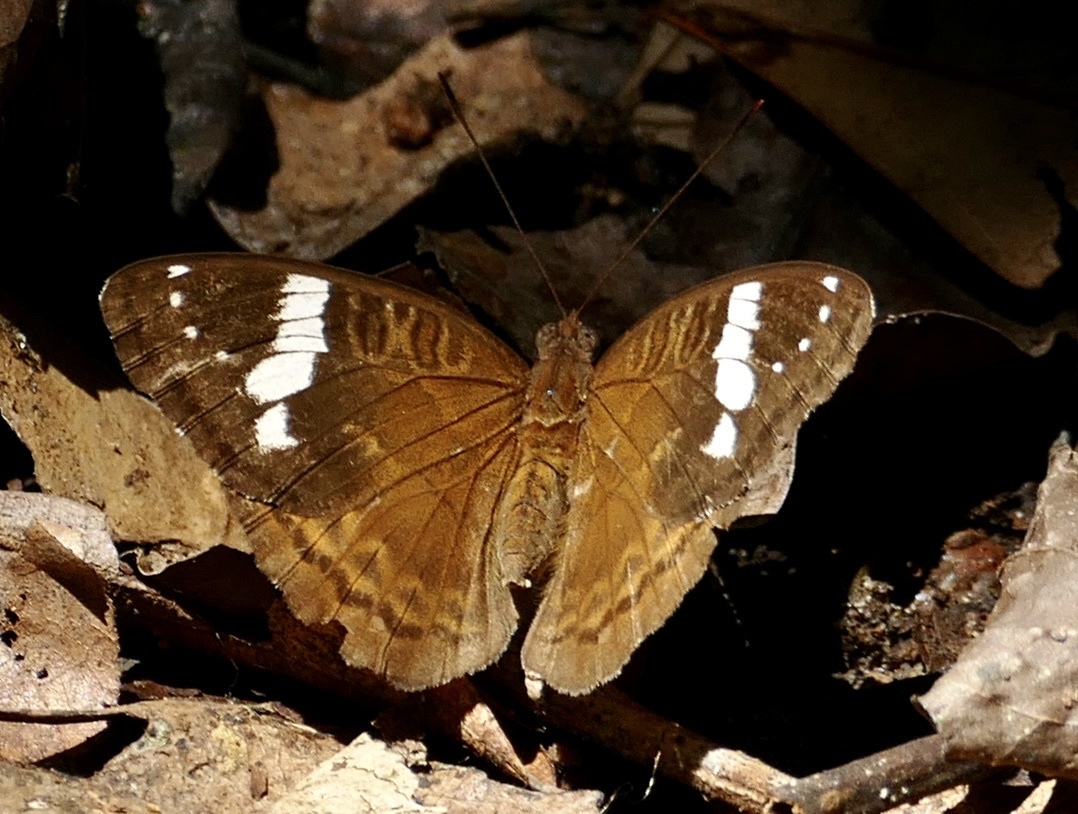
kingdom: Animalia
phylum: Arthropoda
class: Insecta
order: Lepidoptera
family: Nymphalidae
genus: Euriphene
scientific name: Euriphene tadema
